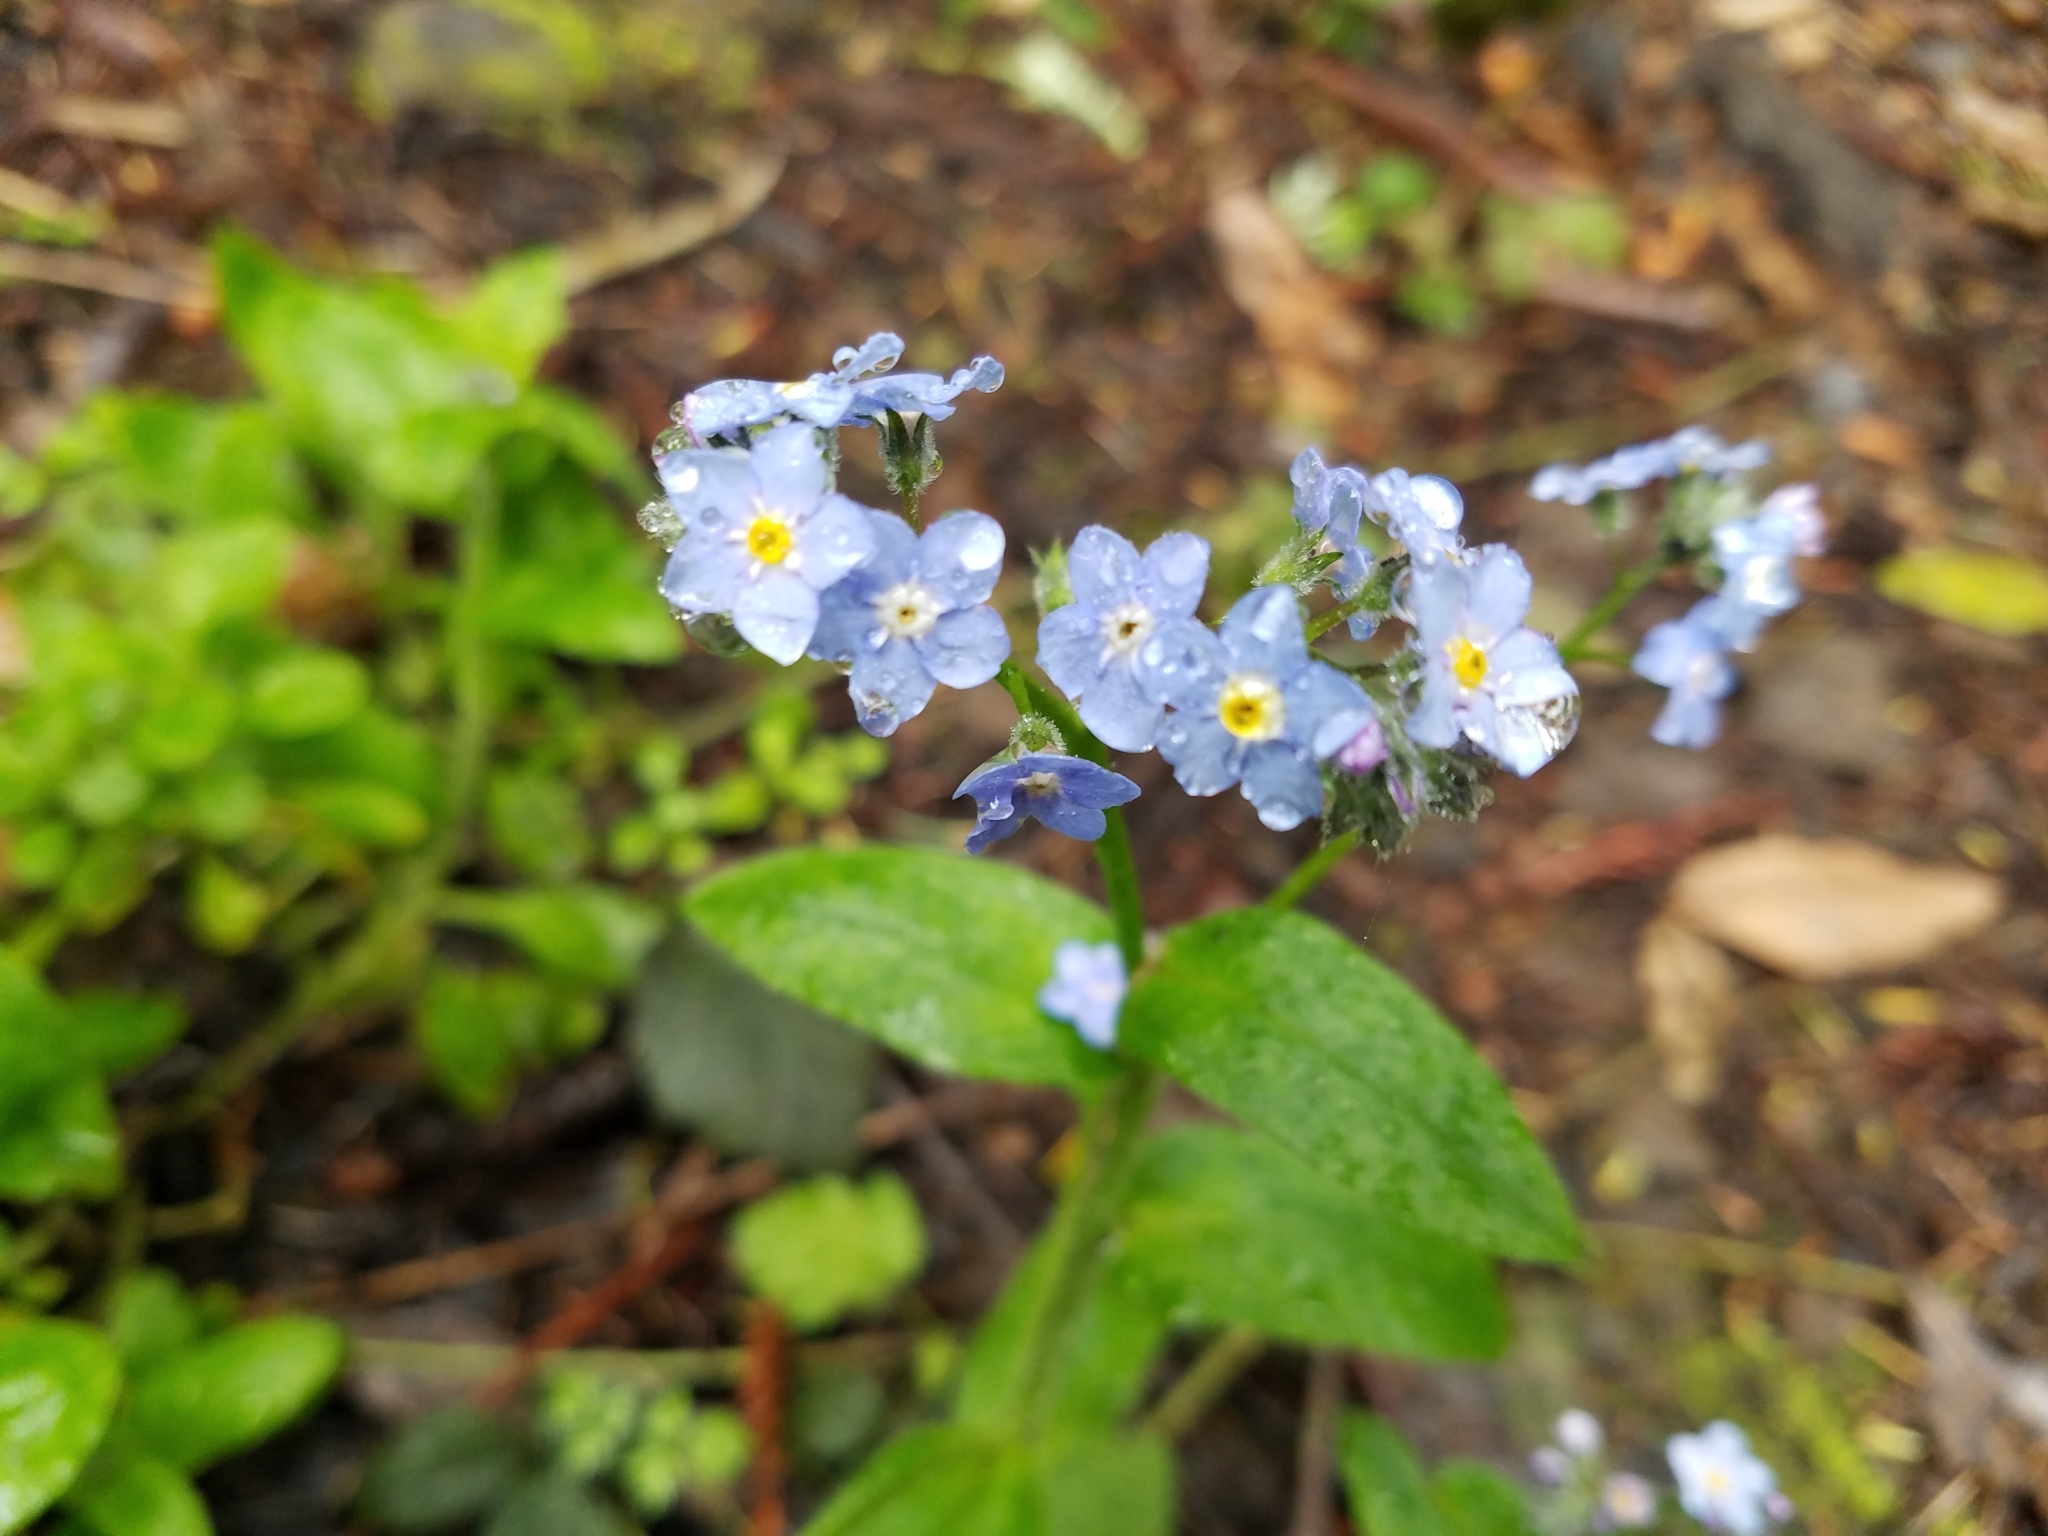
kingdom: Plantae
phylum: Tracheophyta
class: Magnoliopsida
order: Boraginales
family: Boraginaceae
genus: Myosotis
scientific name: Myosotis latifolia
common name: Broadleaf forget-me-not
